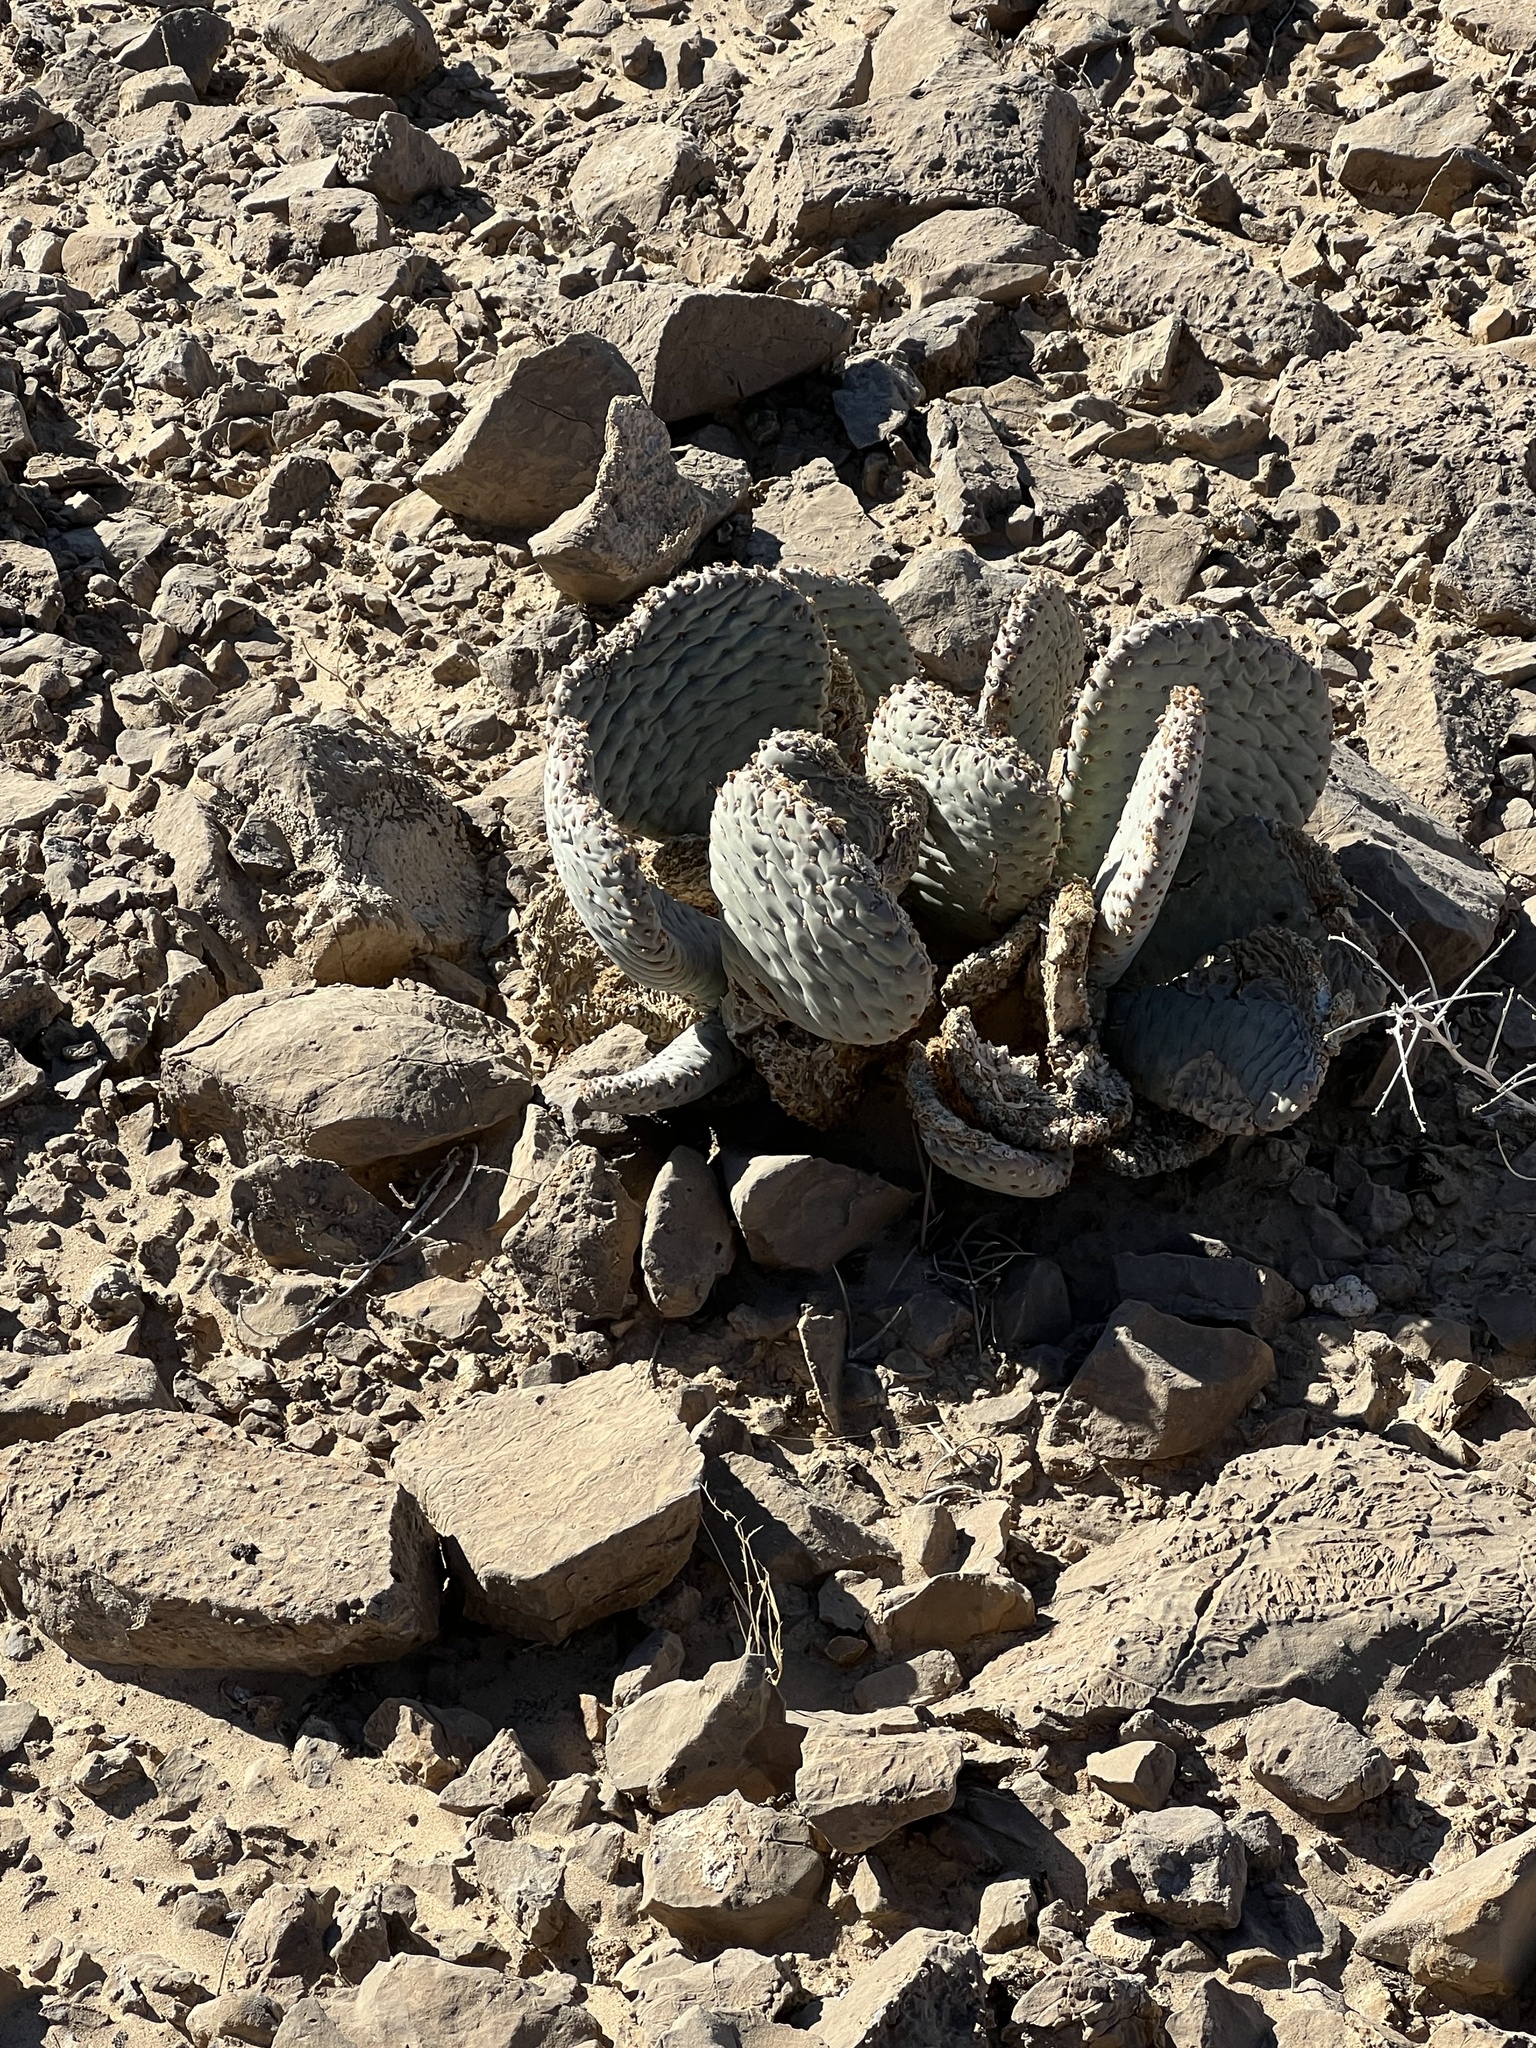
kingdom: Plantae
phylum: Tracheophyta
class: Magnoliopsida
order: Caryophyllales
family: Cactaceae
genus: Opuntia
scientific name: Opuntia basilaris
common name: Beavertail prickly-pear
